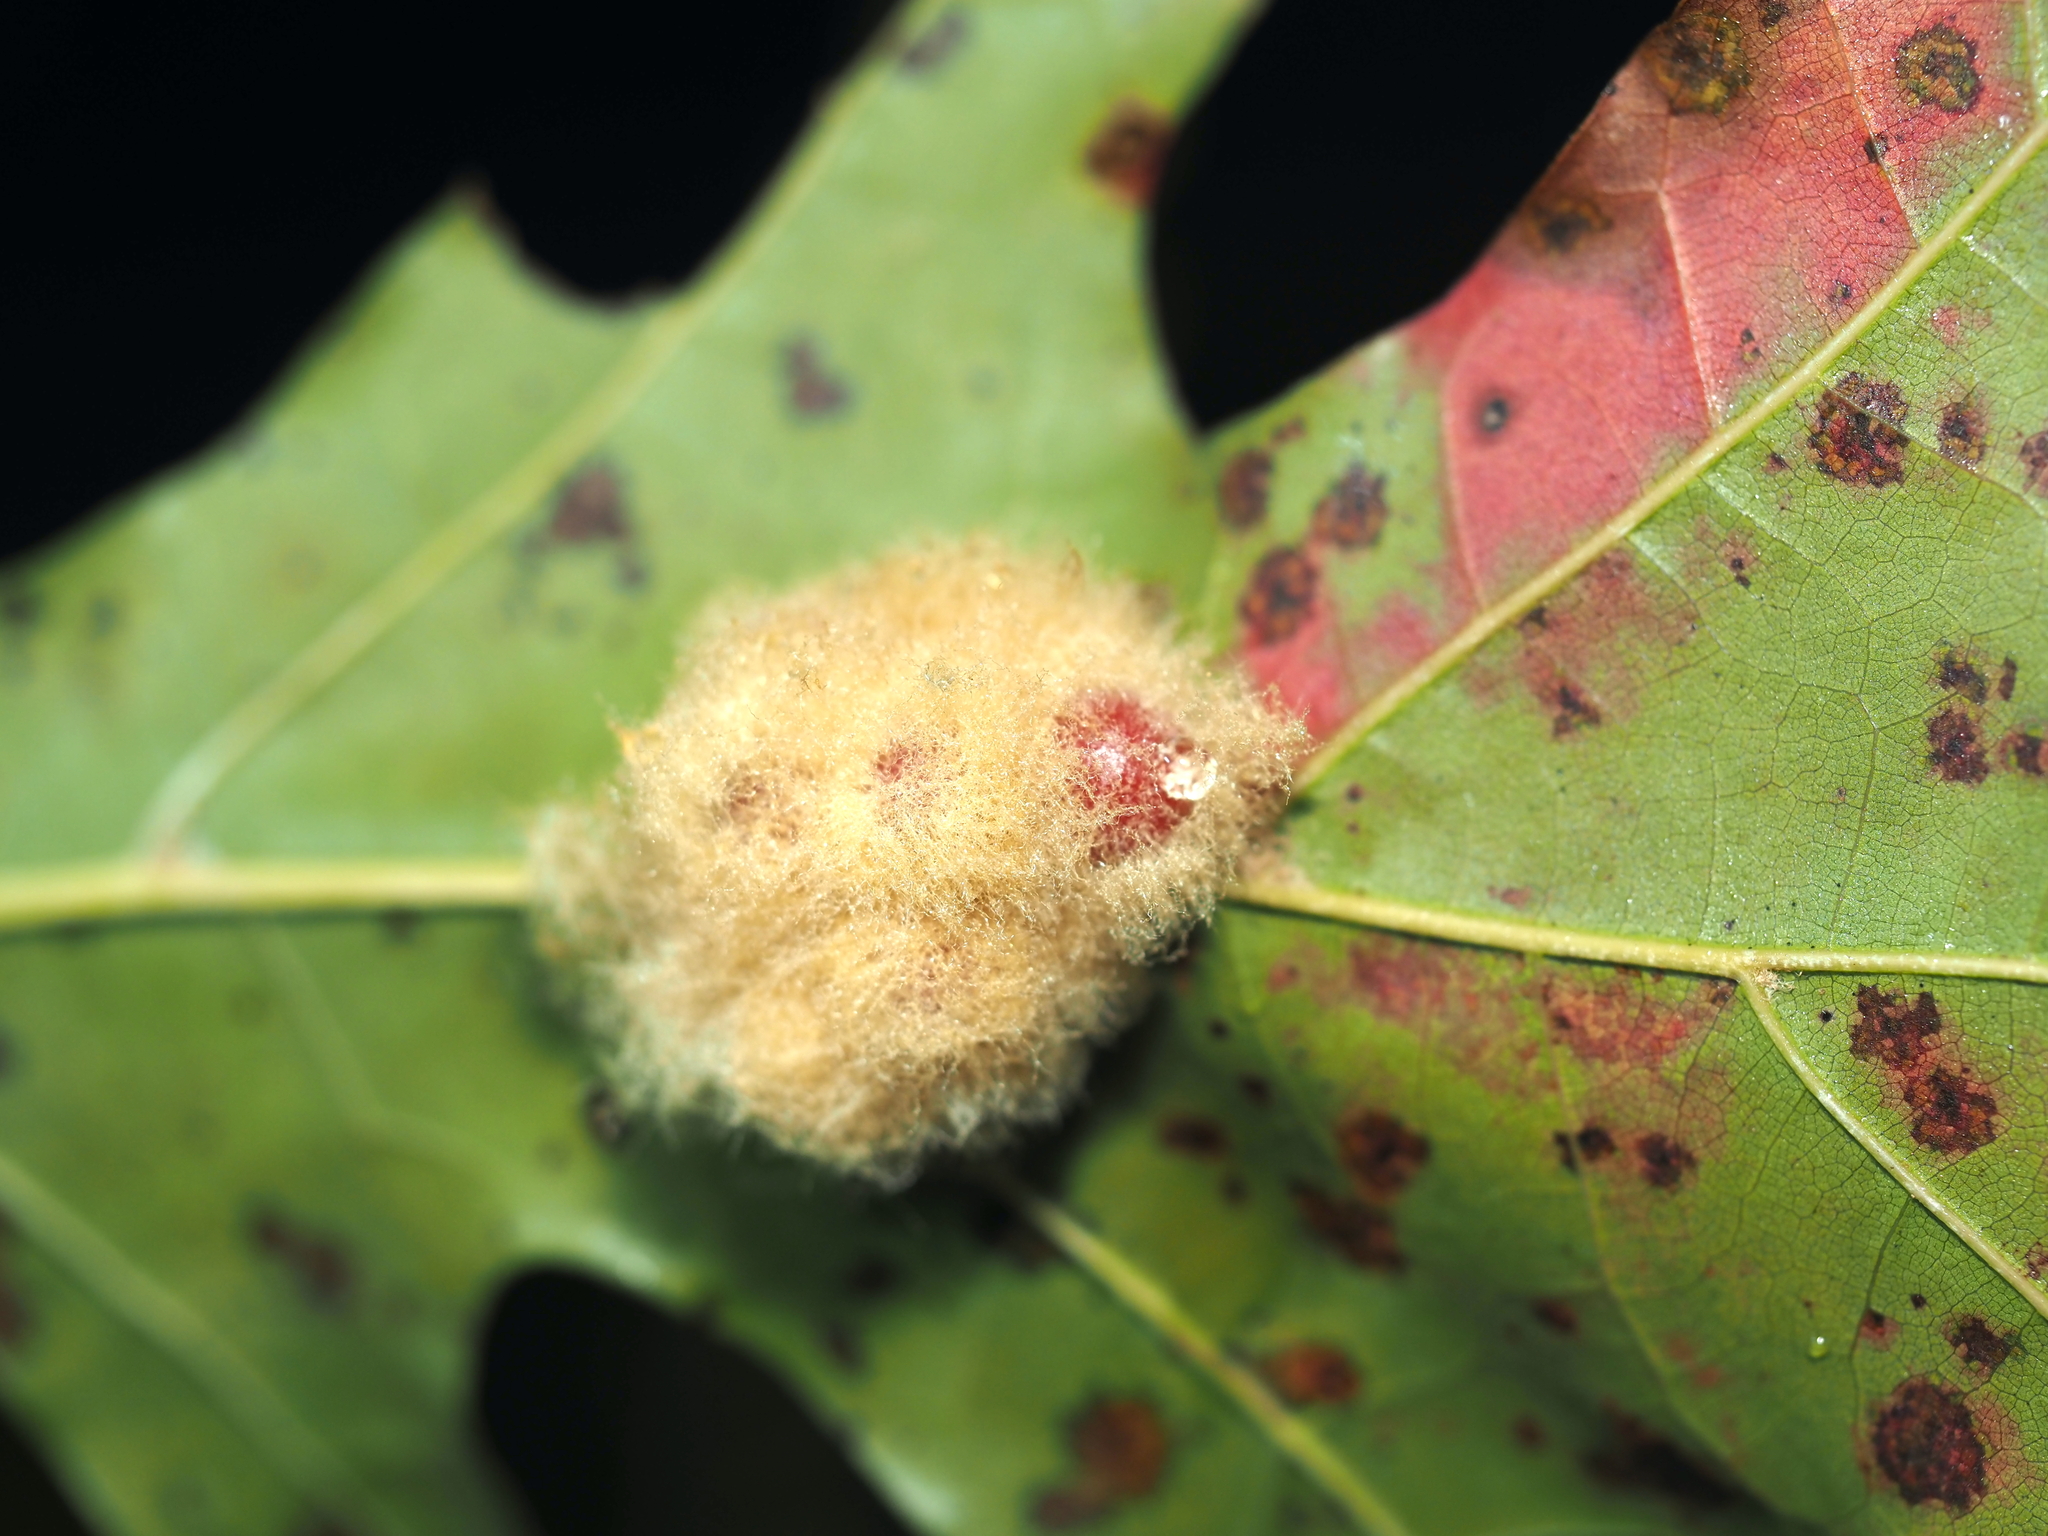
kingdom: Animalia
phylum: Arthropoda
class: Insecta
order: Hymenoptera
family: Cynipidae
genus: Callirhytis
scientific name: Callirhytis
